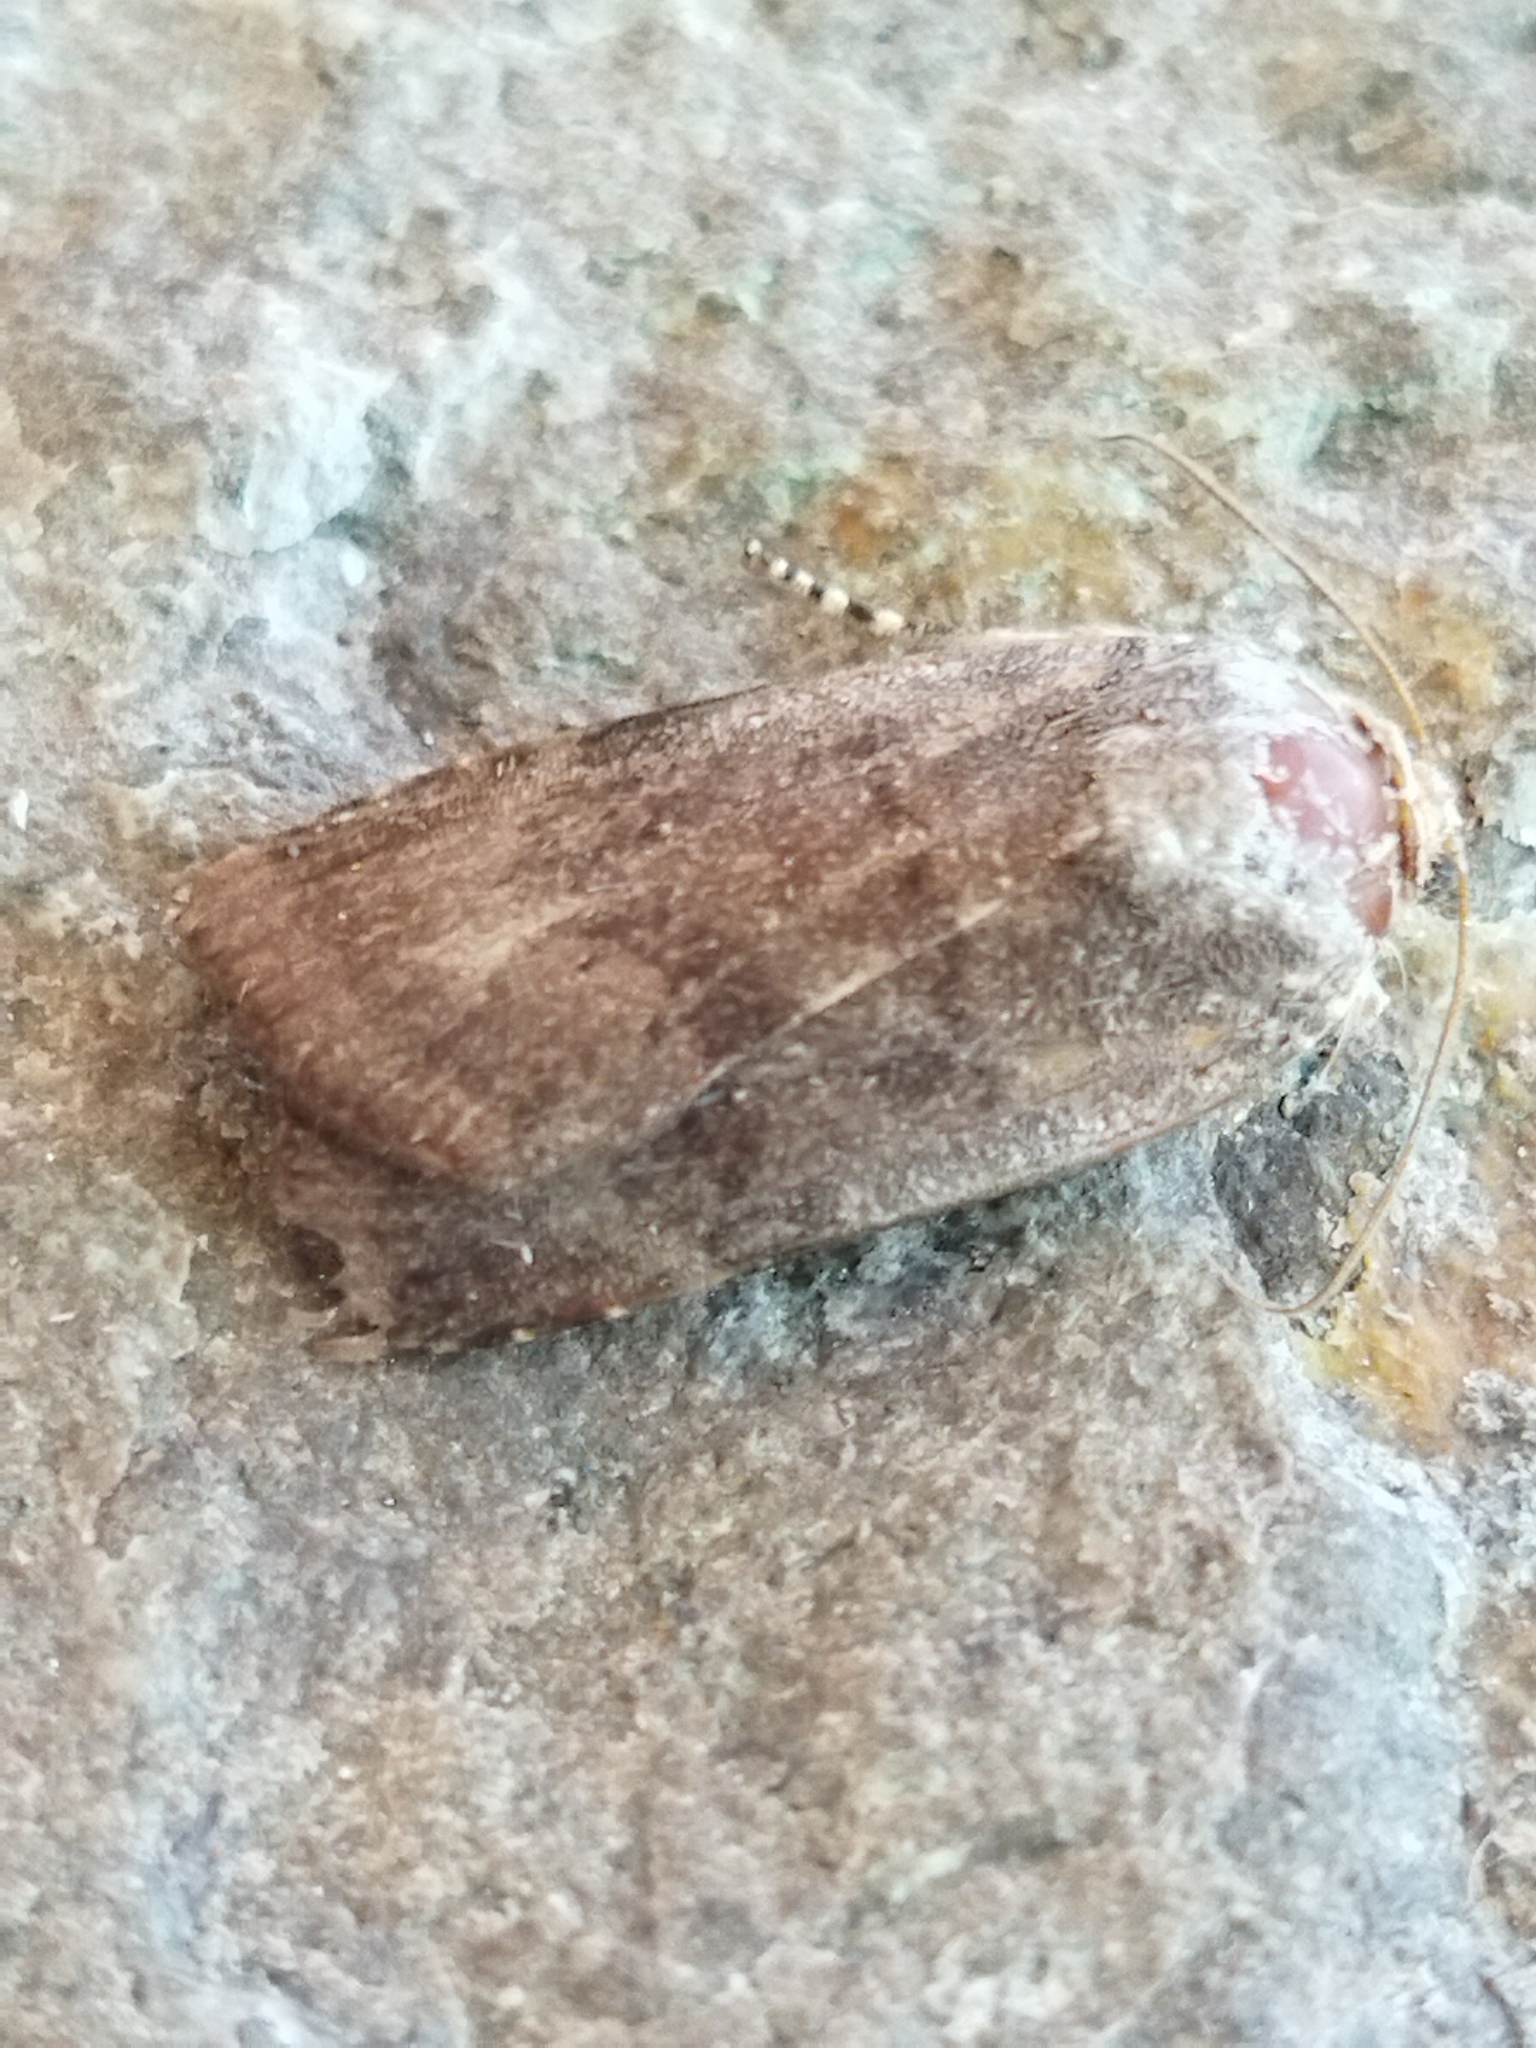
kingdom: Animalia
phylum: Arthropoda
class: Insecta
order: Lepidoptera
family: Noctuidae
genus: Noctua
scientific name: Noctua janthina
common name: Langmaid's yellow underwing
